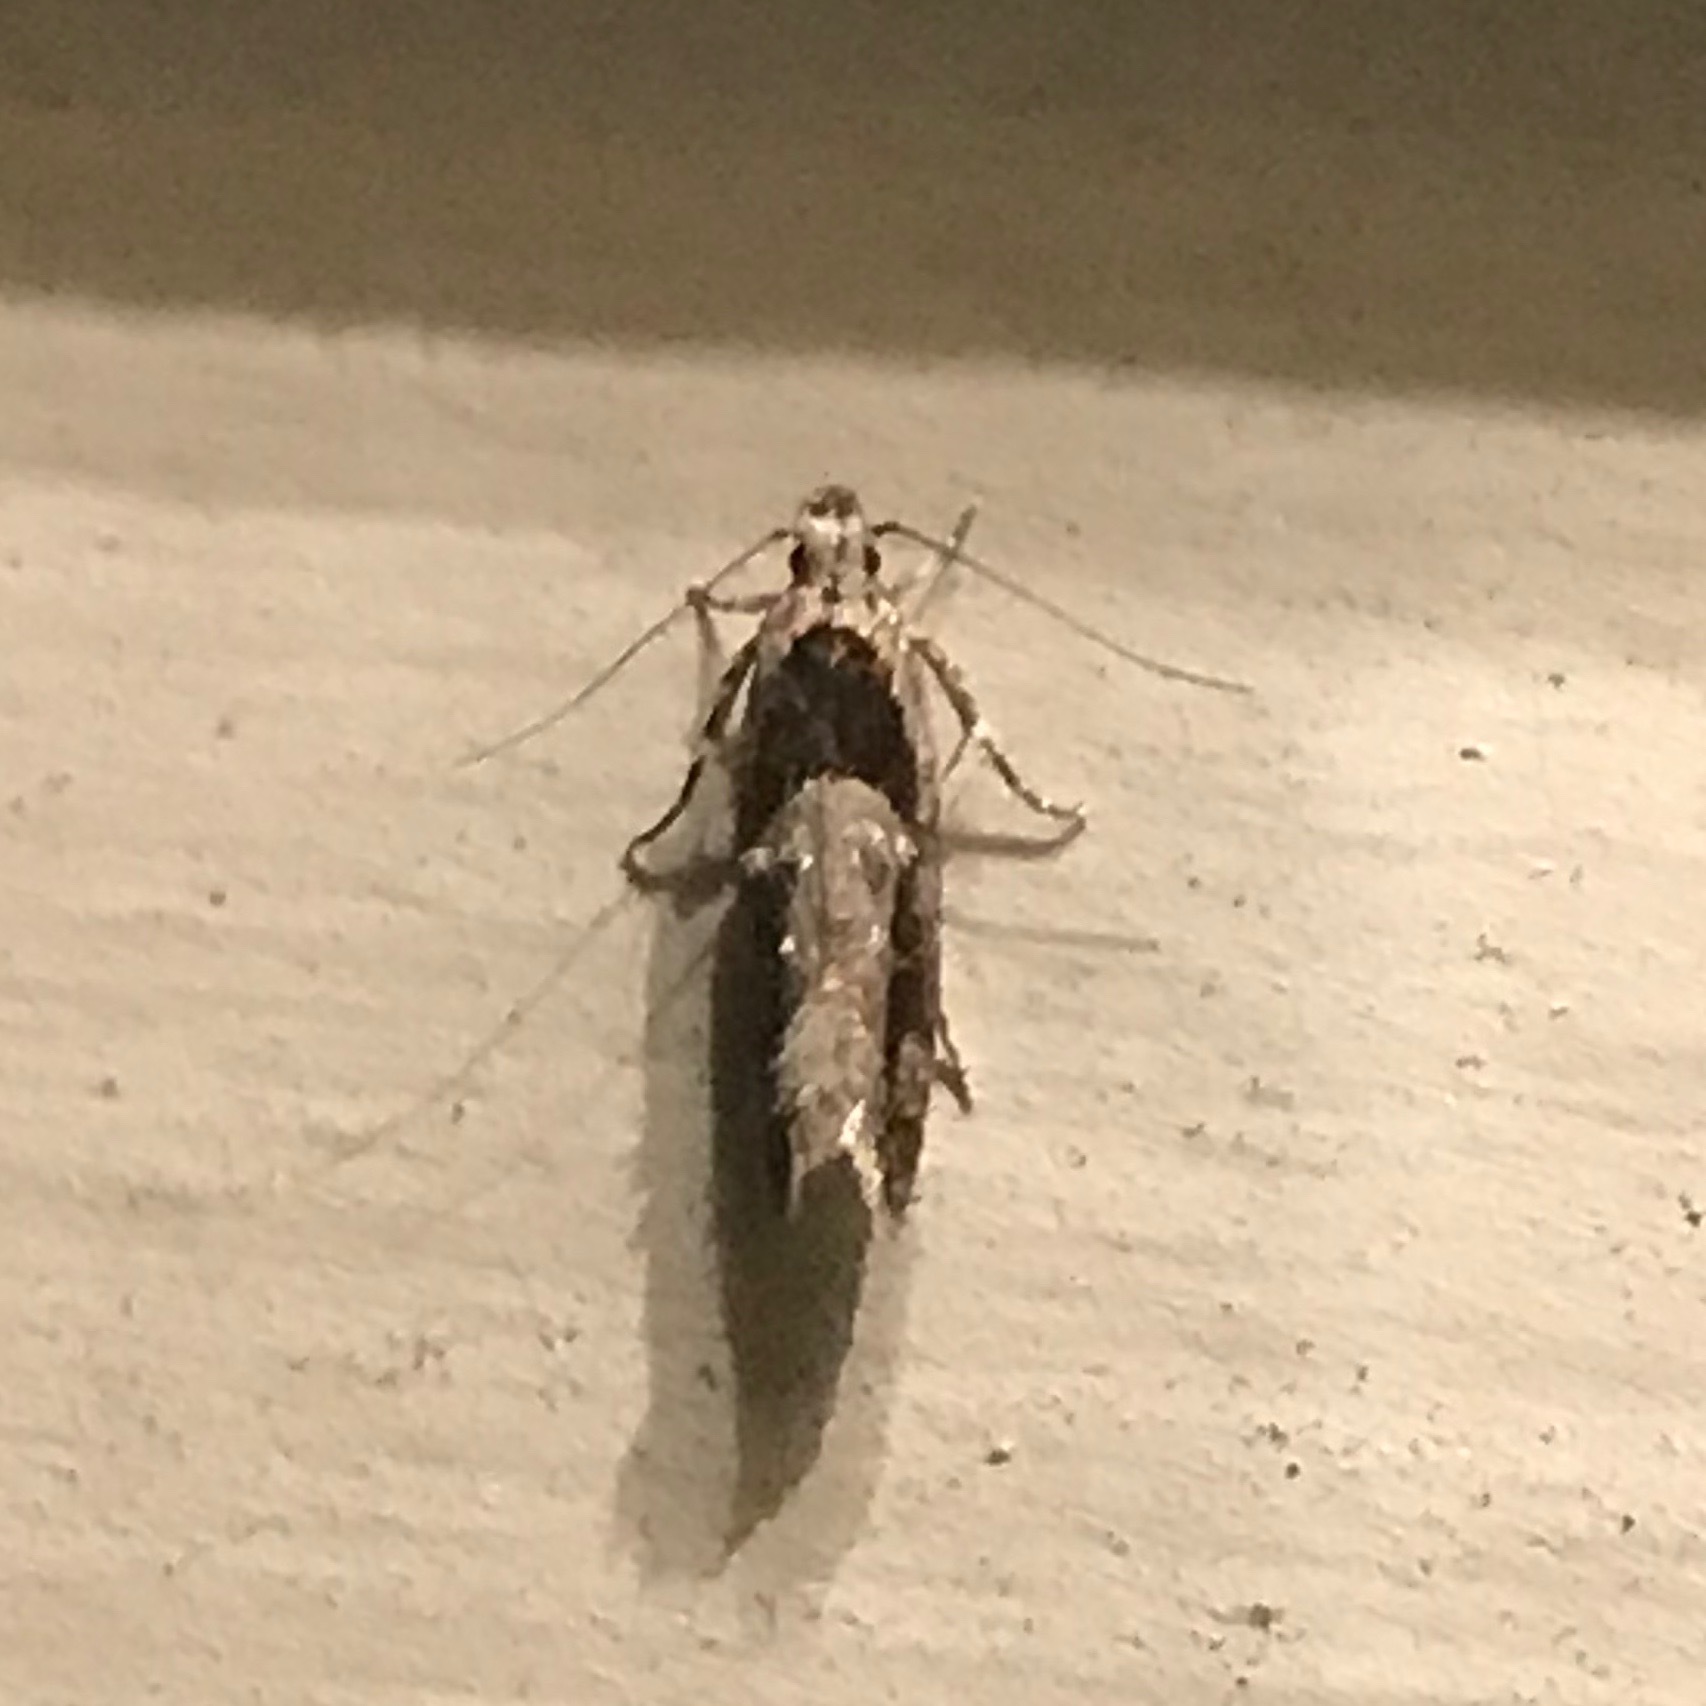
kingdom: Animalia
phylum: Arthropoda
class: Insecta
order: Lepidoptera
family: Gelechiidae
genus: Pseudochelaria
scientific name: Pseudochelaria pennsylvanica
